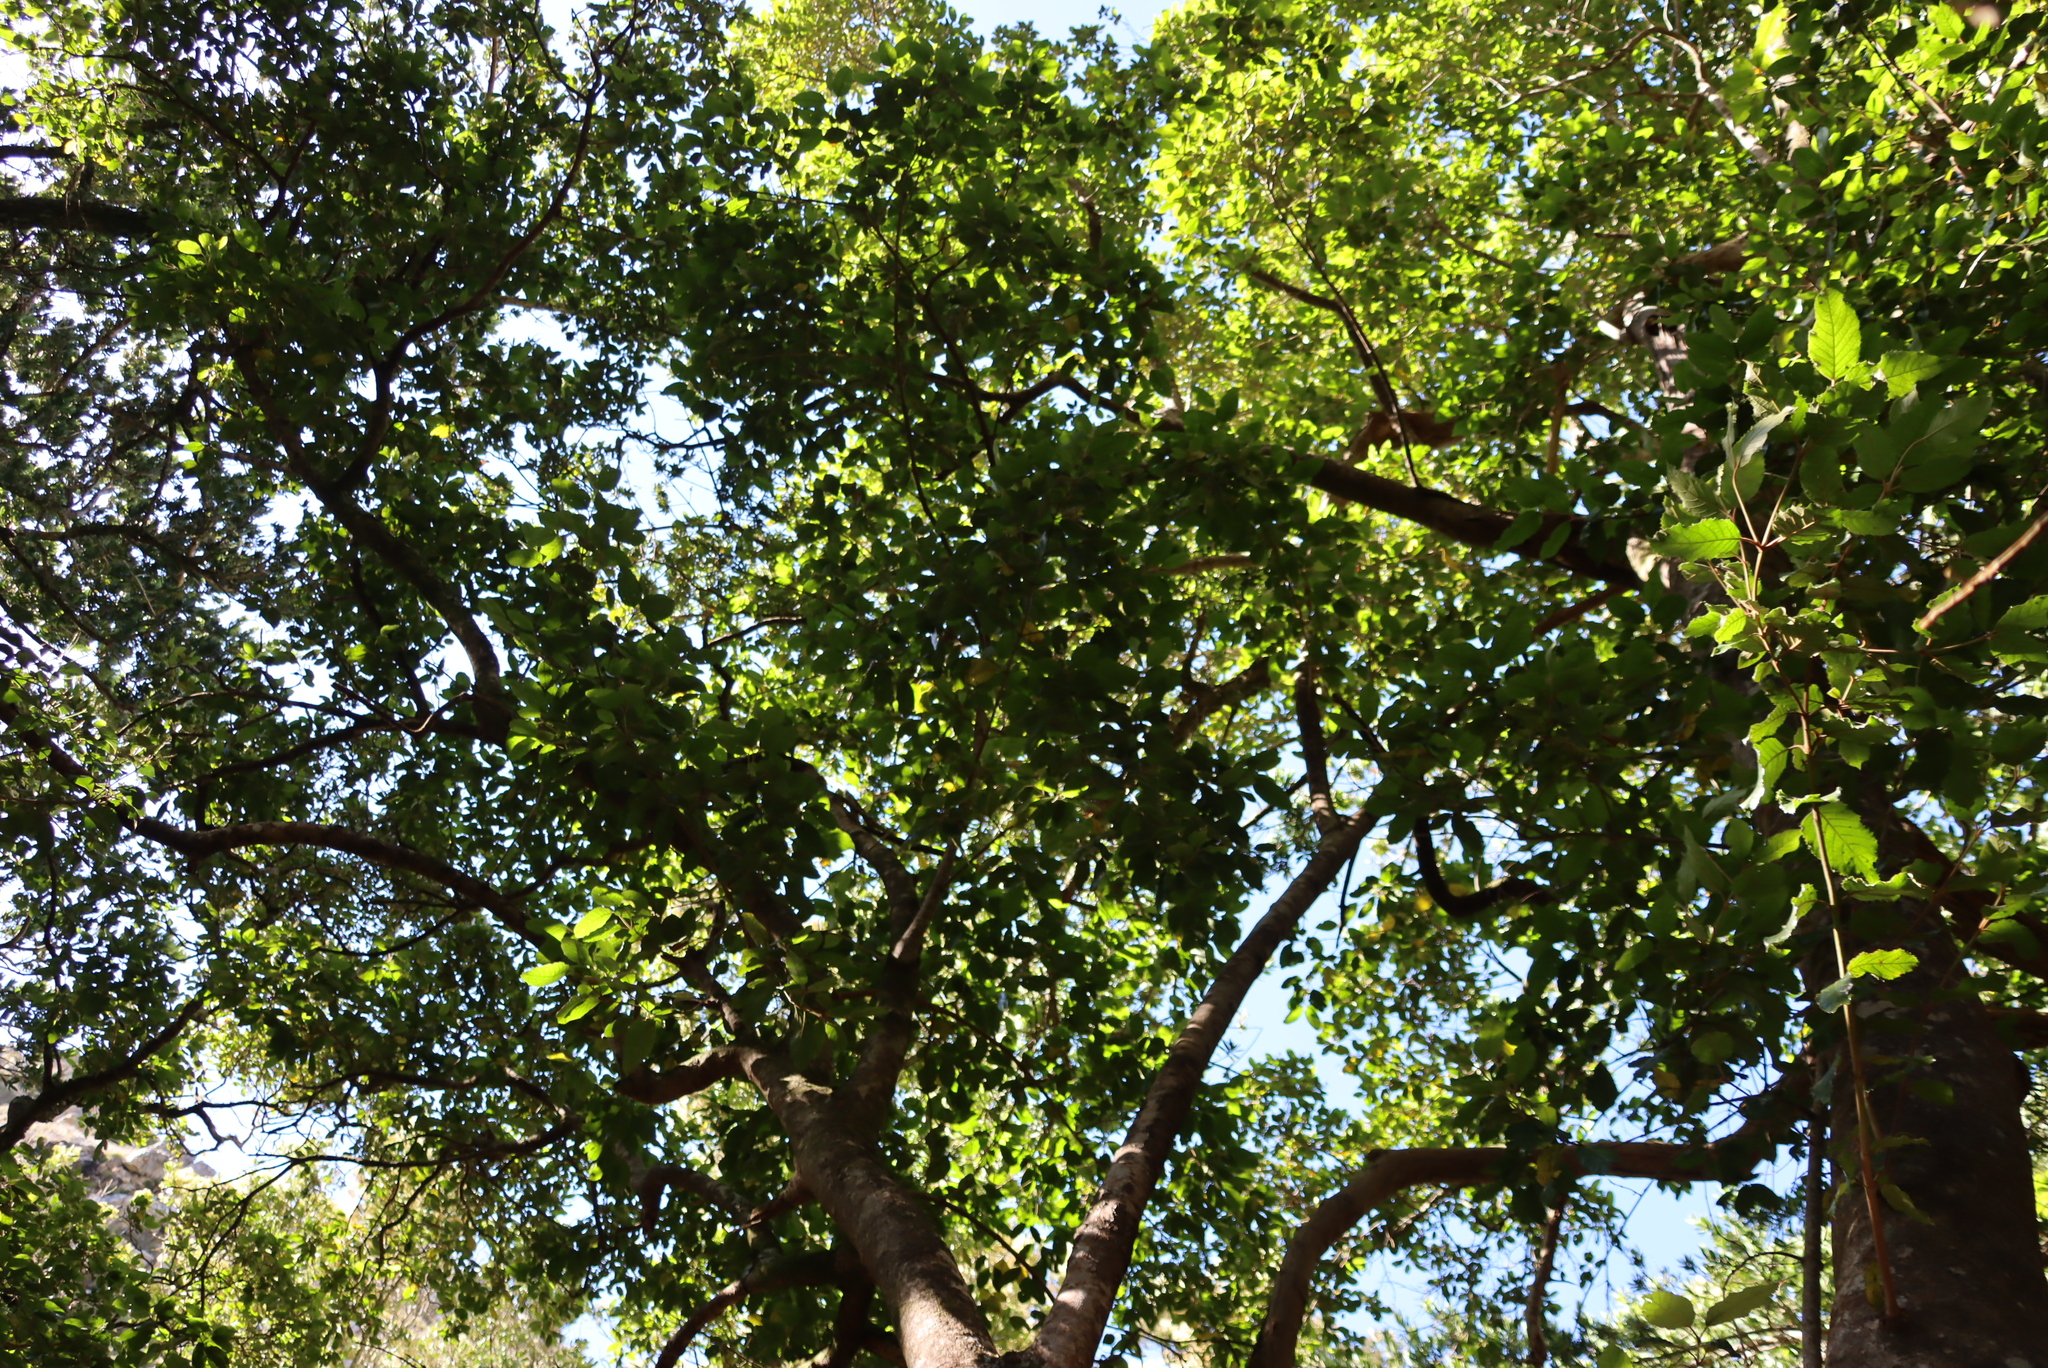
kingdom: Plantae
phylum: Tracheophyta
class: Magnoliopsida
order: Cornales
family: Curtisiaceae
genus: Curtisia
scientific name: Curtisia dentata
